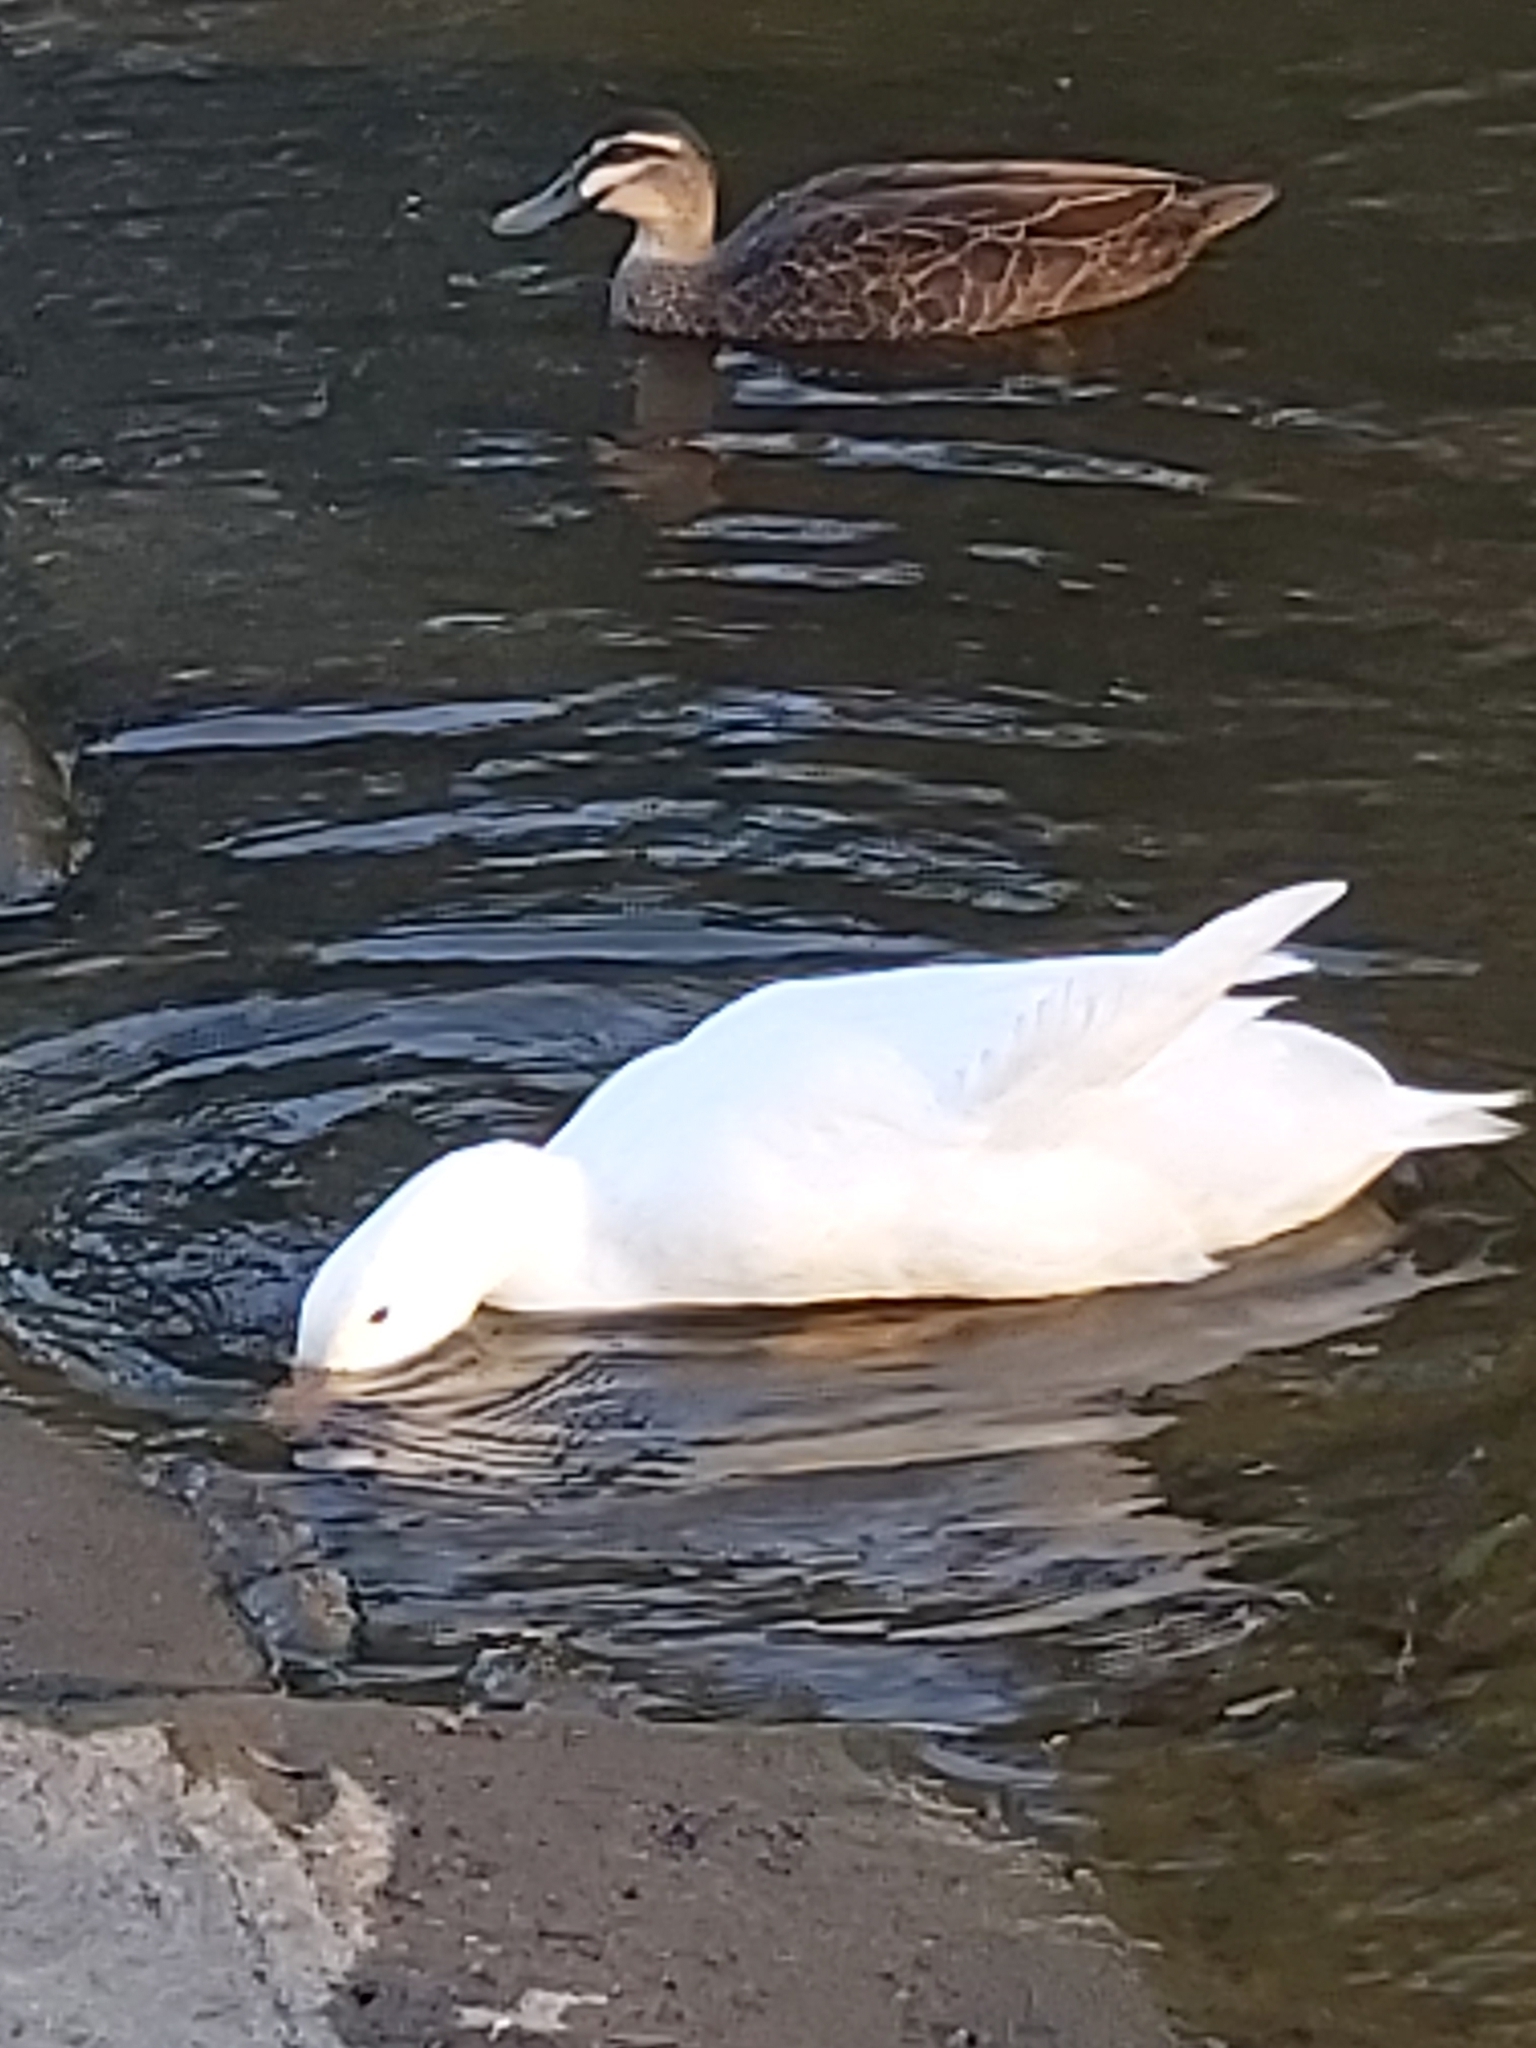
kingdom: Animalia
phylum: Chordata
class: Aves
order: Anseriformes
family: Anatidae
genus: Anas
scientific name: Anas platyrhynchos
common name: Mallard
